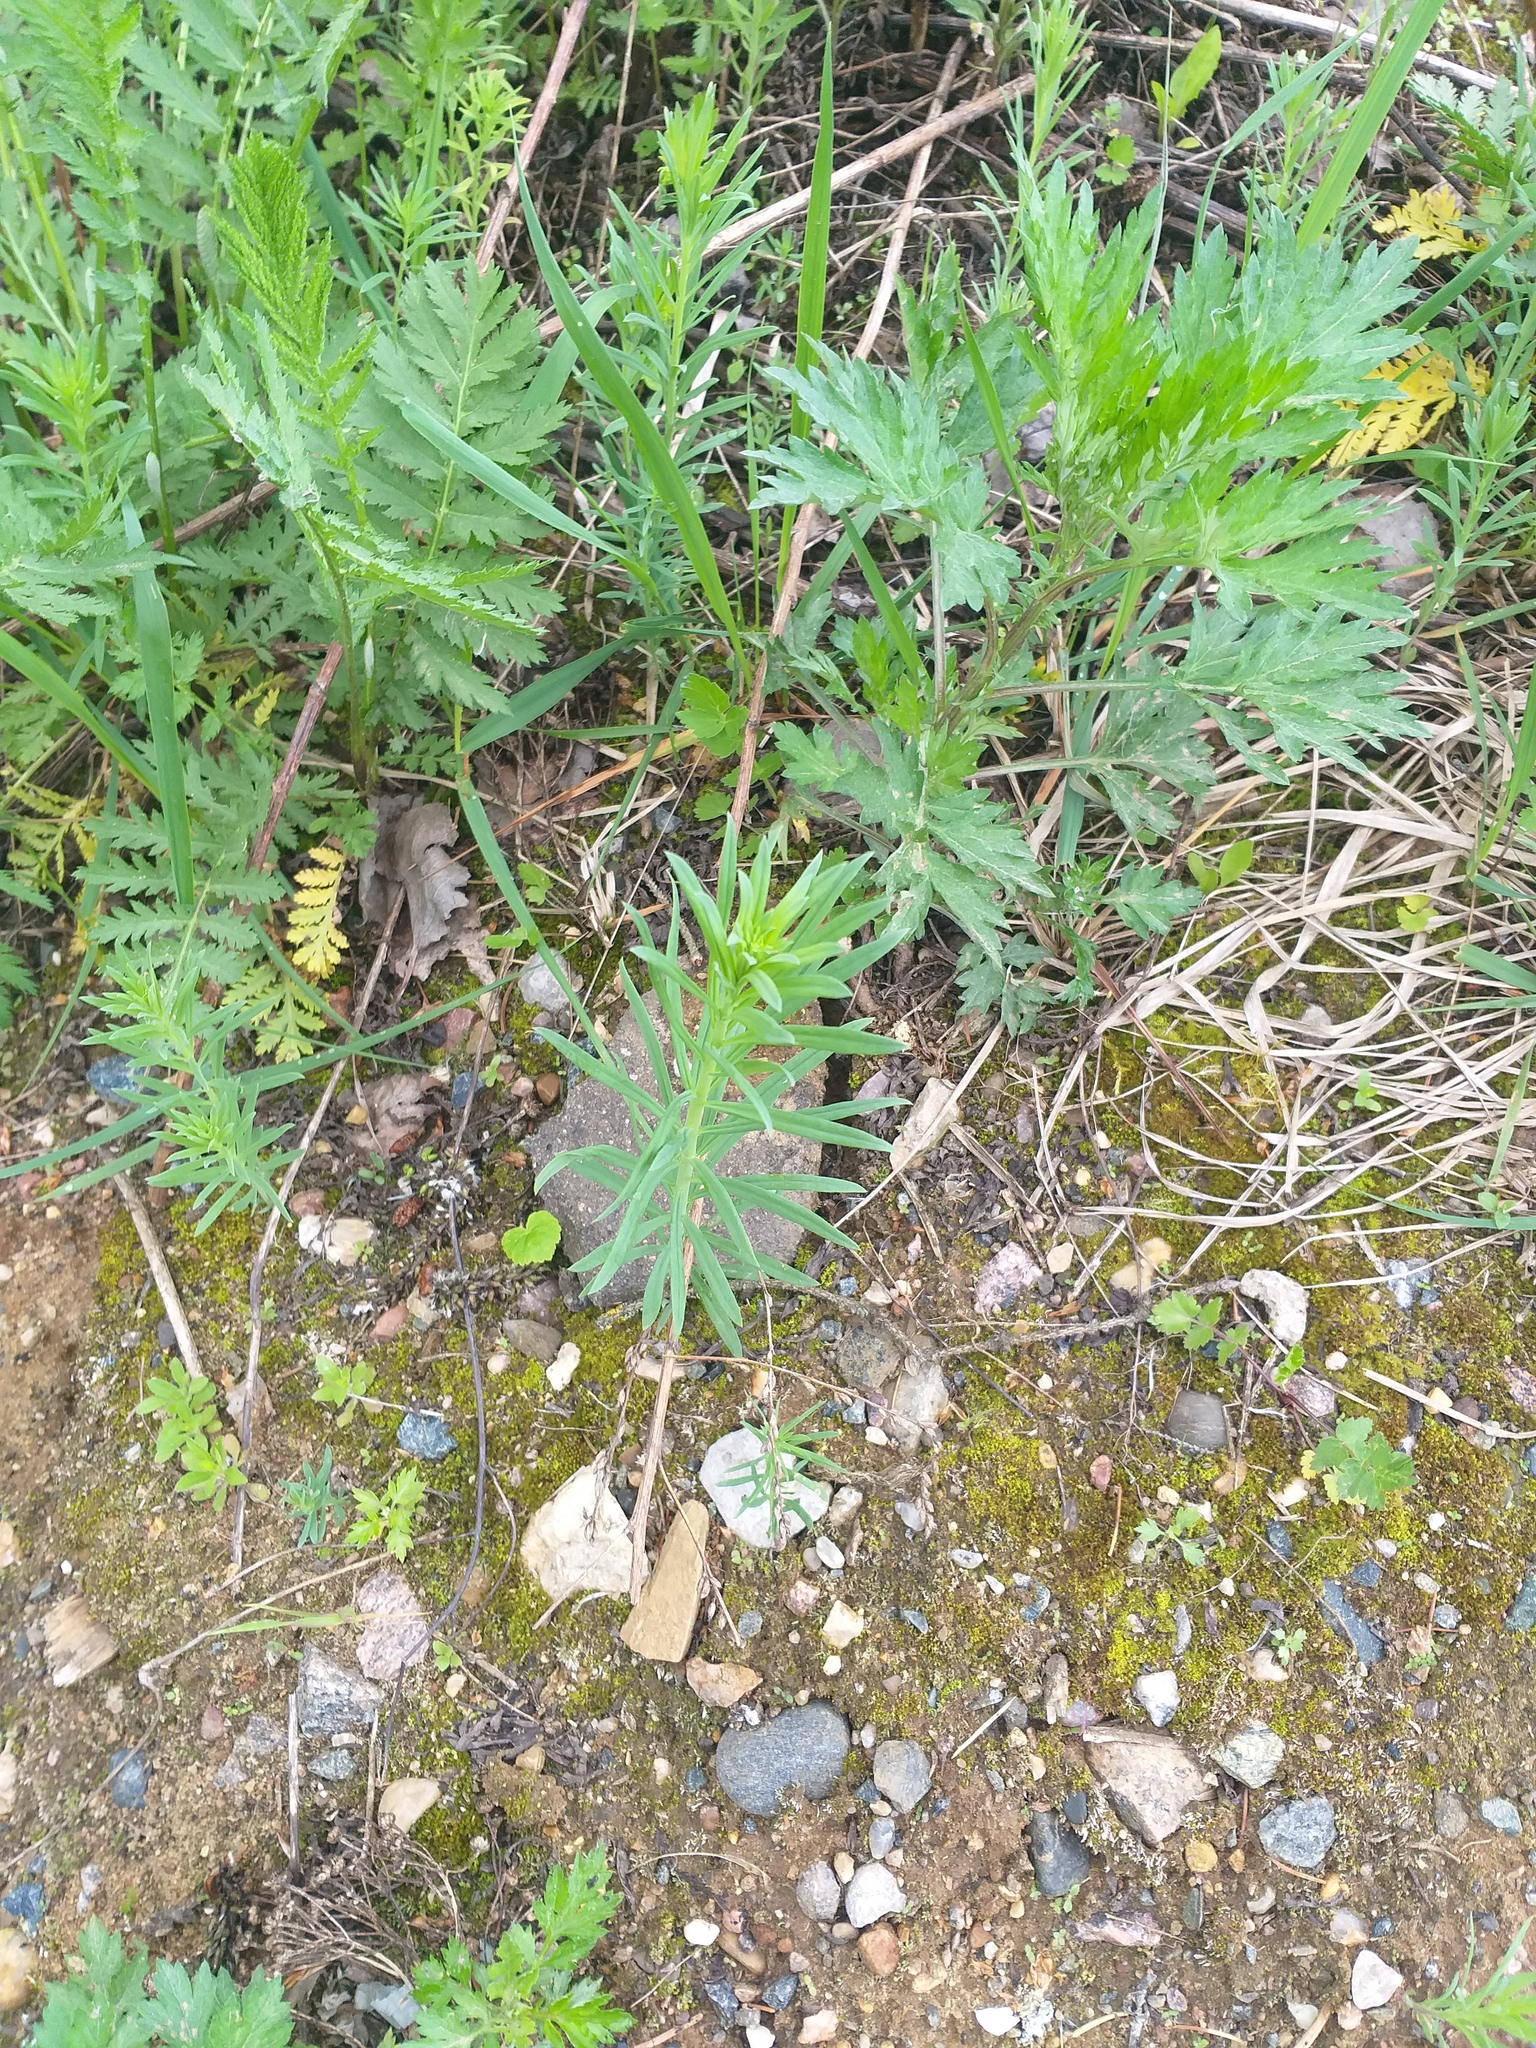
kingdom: Plantae
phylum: Tracheophyta
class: Magnoliopsida
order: Lamiales
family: Plantaginaceae
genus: Linaria
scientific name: Linaria vulgaris
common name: Butter and eggs
